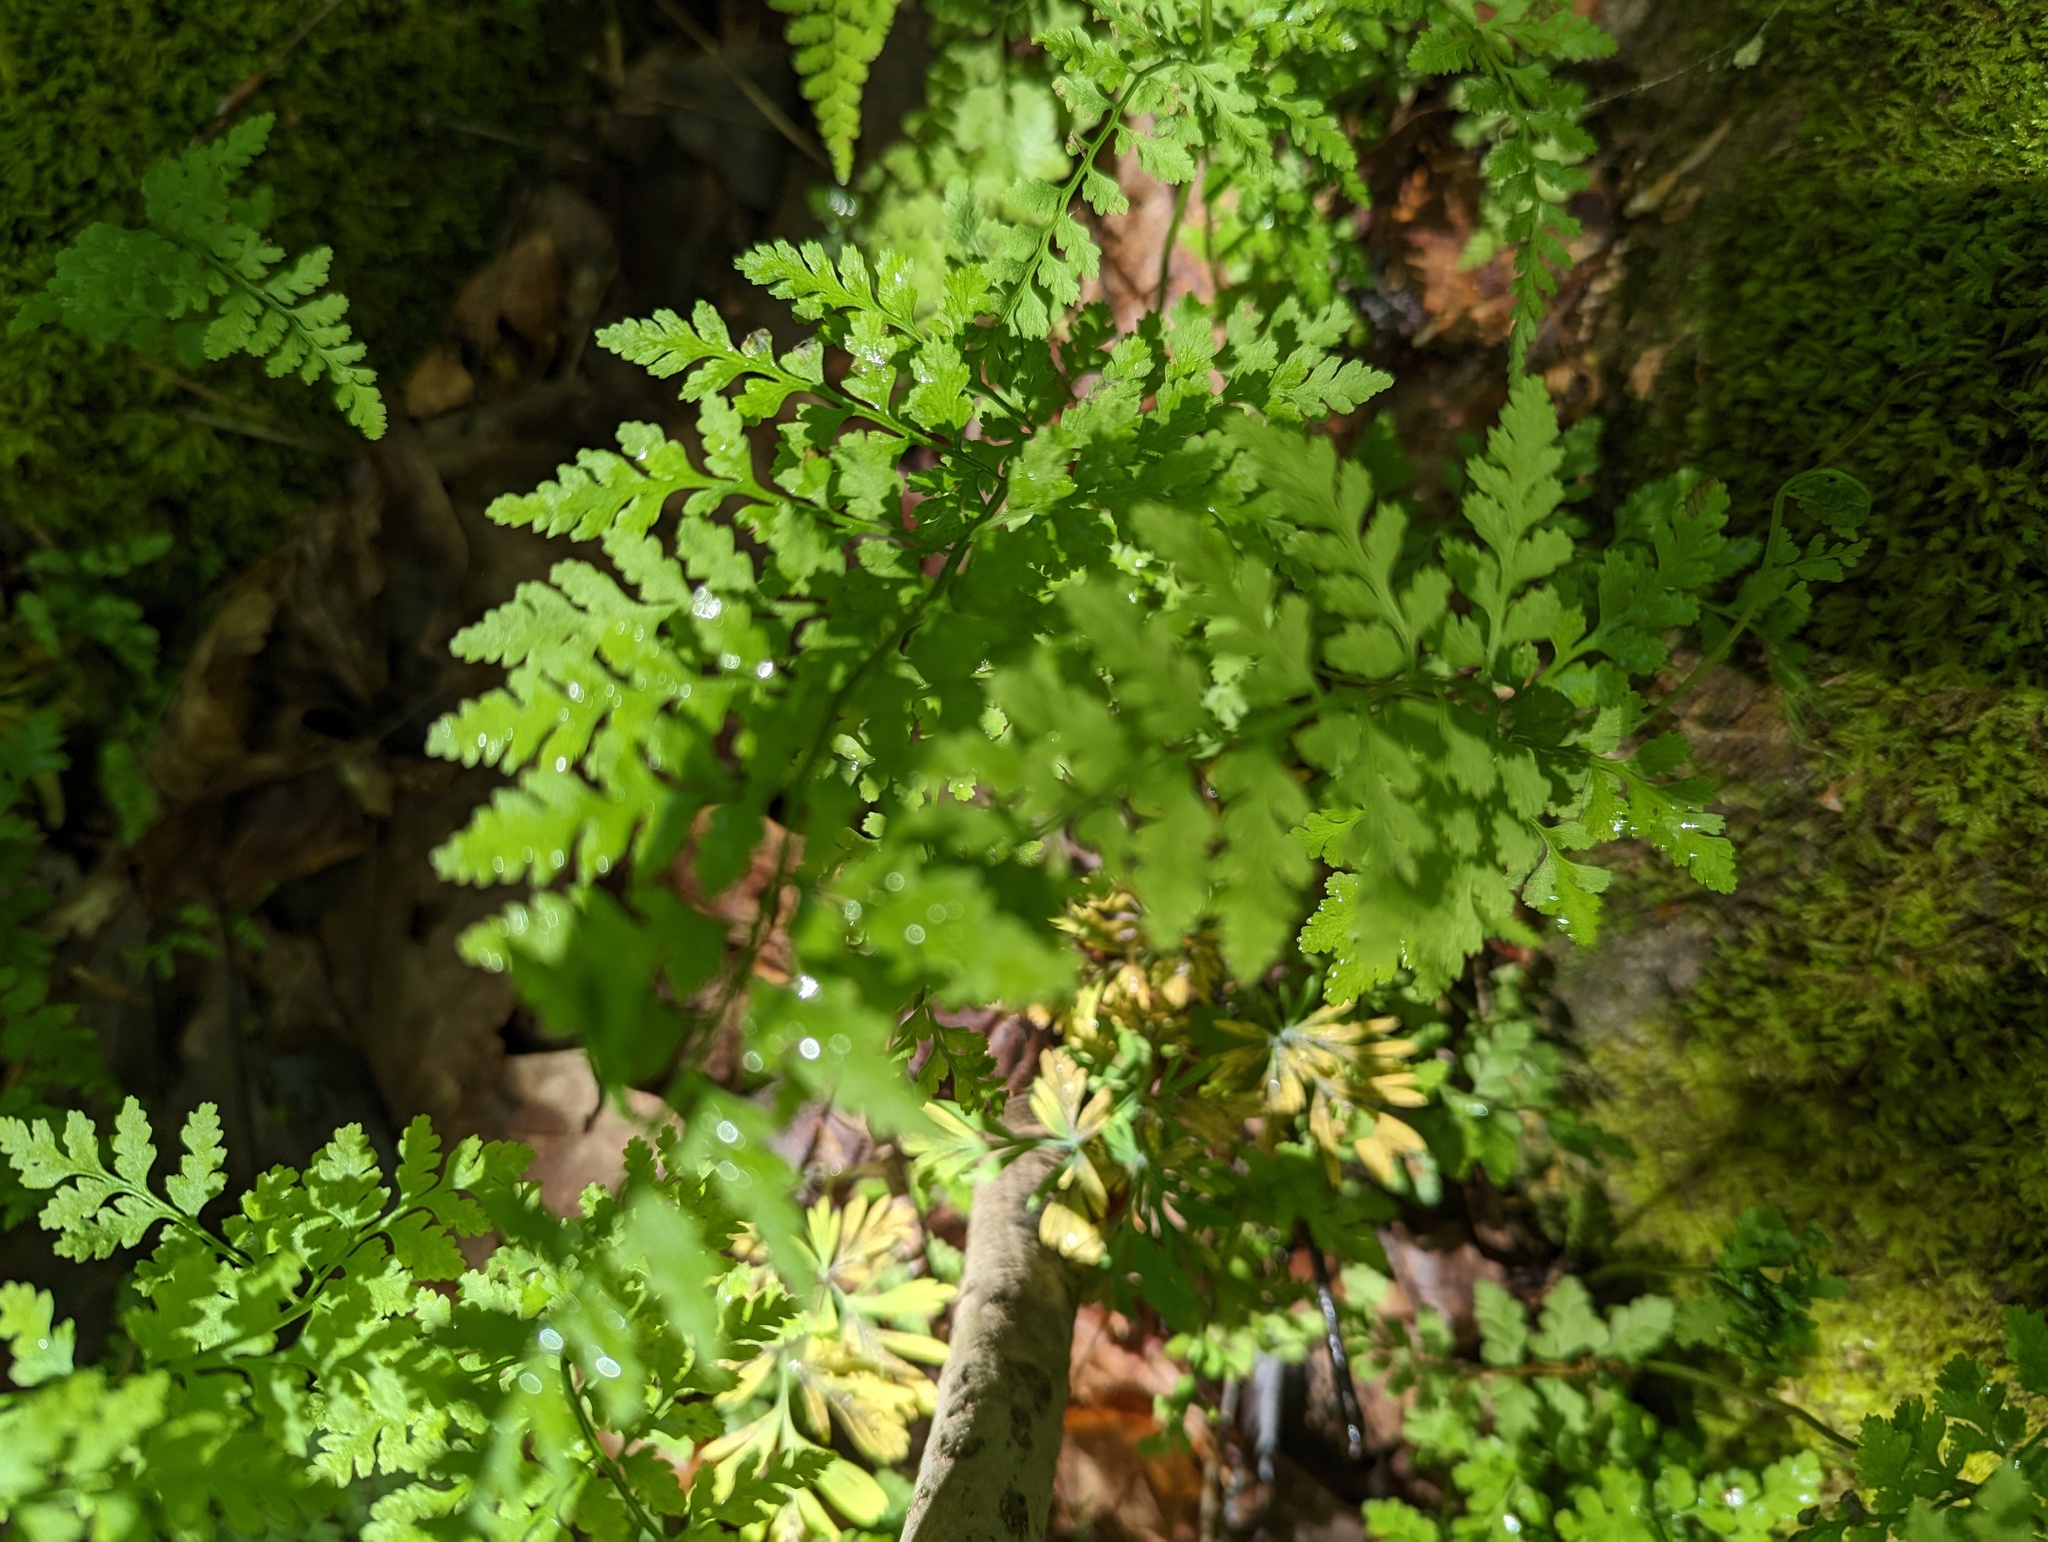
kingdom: Plantae
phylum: Tracheophyta
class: Polypodiopsida
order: Polypodiales
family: Cystopteridaceae
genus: Cystopteris
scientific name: Cystopteris protrusa
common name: Lowland brittle fern
